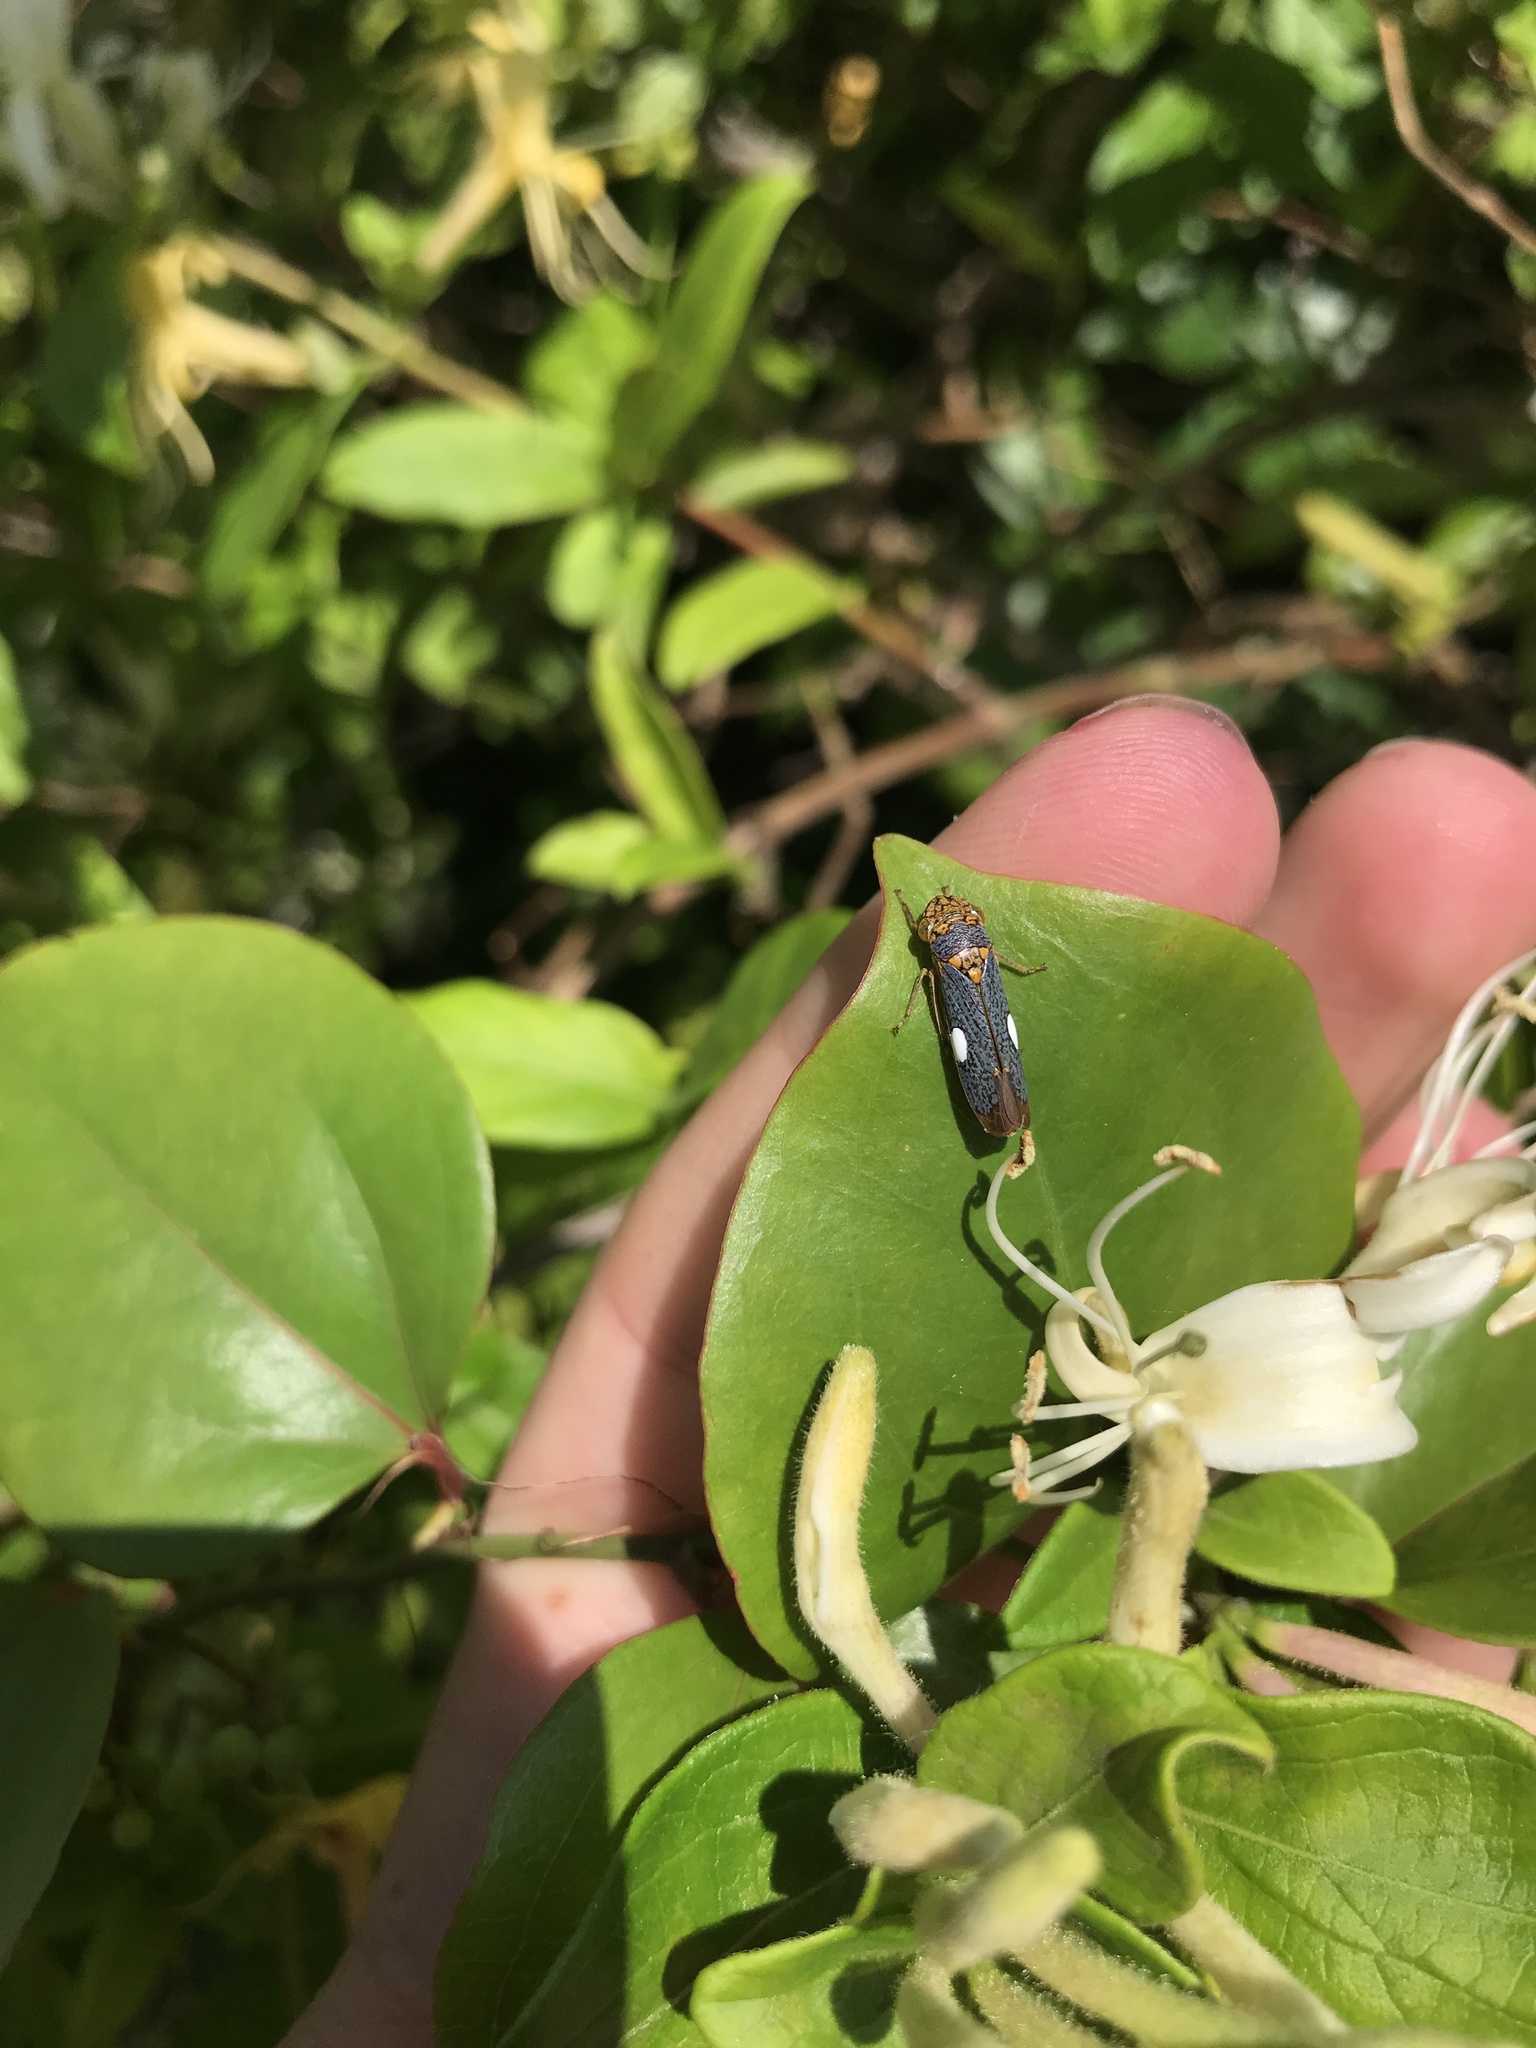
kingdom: Animalia
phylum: Arthropoda
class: Insecta
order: Hemiptera
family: Cicadellidae
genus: Oncometopia
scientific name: Oncometopia orbona
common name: Broad-headed sharpshooter
